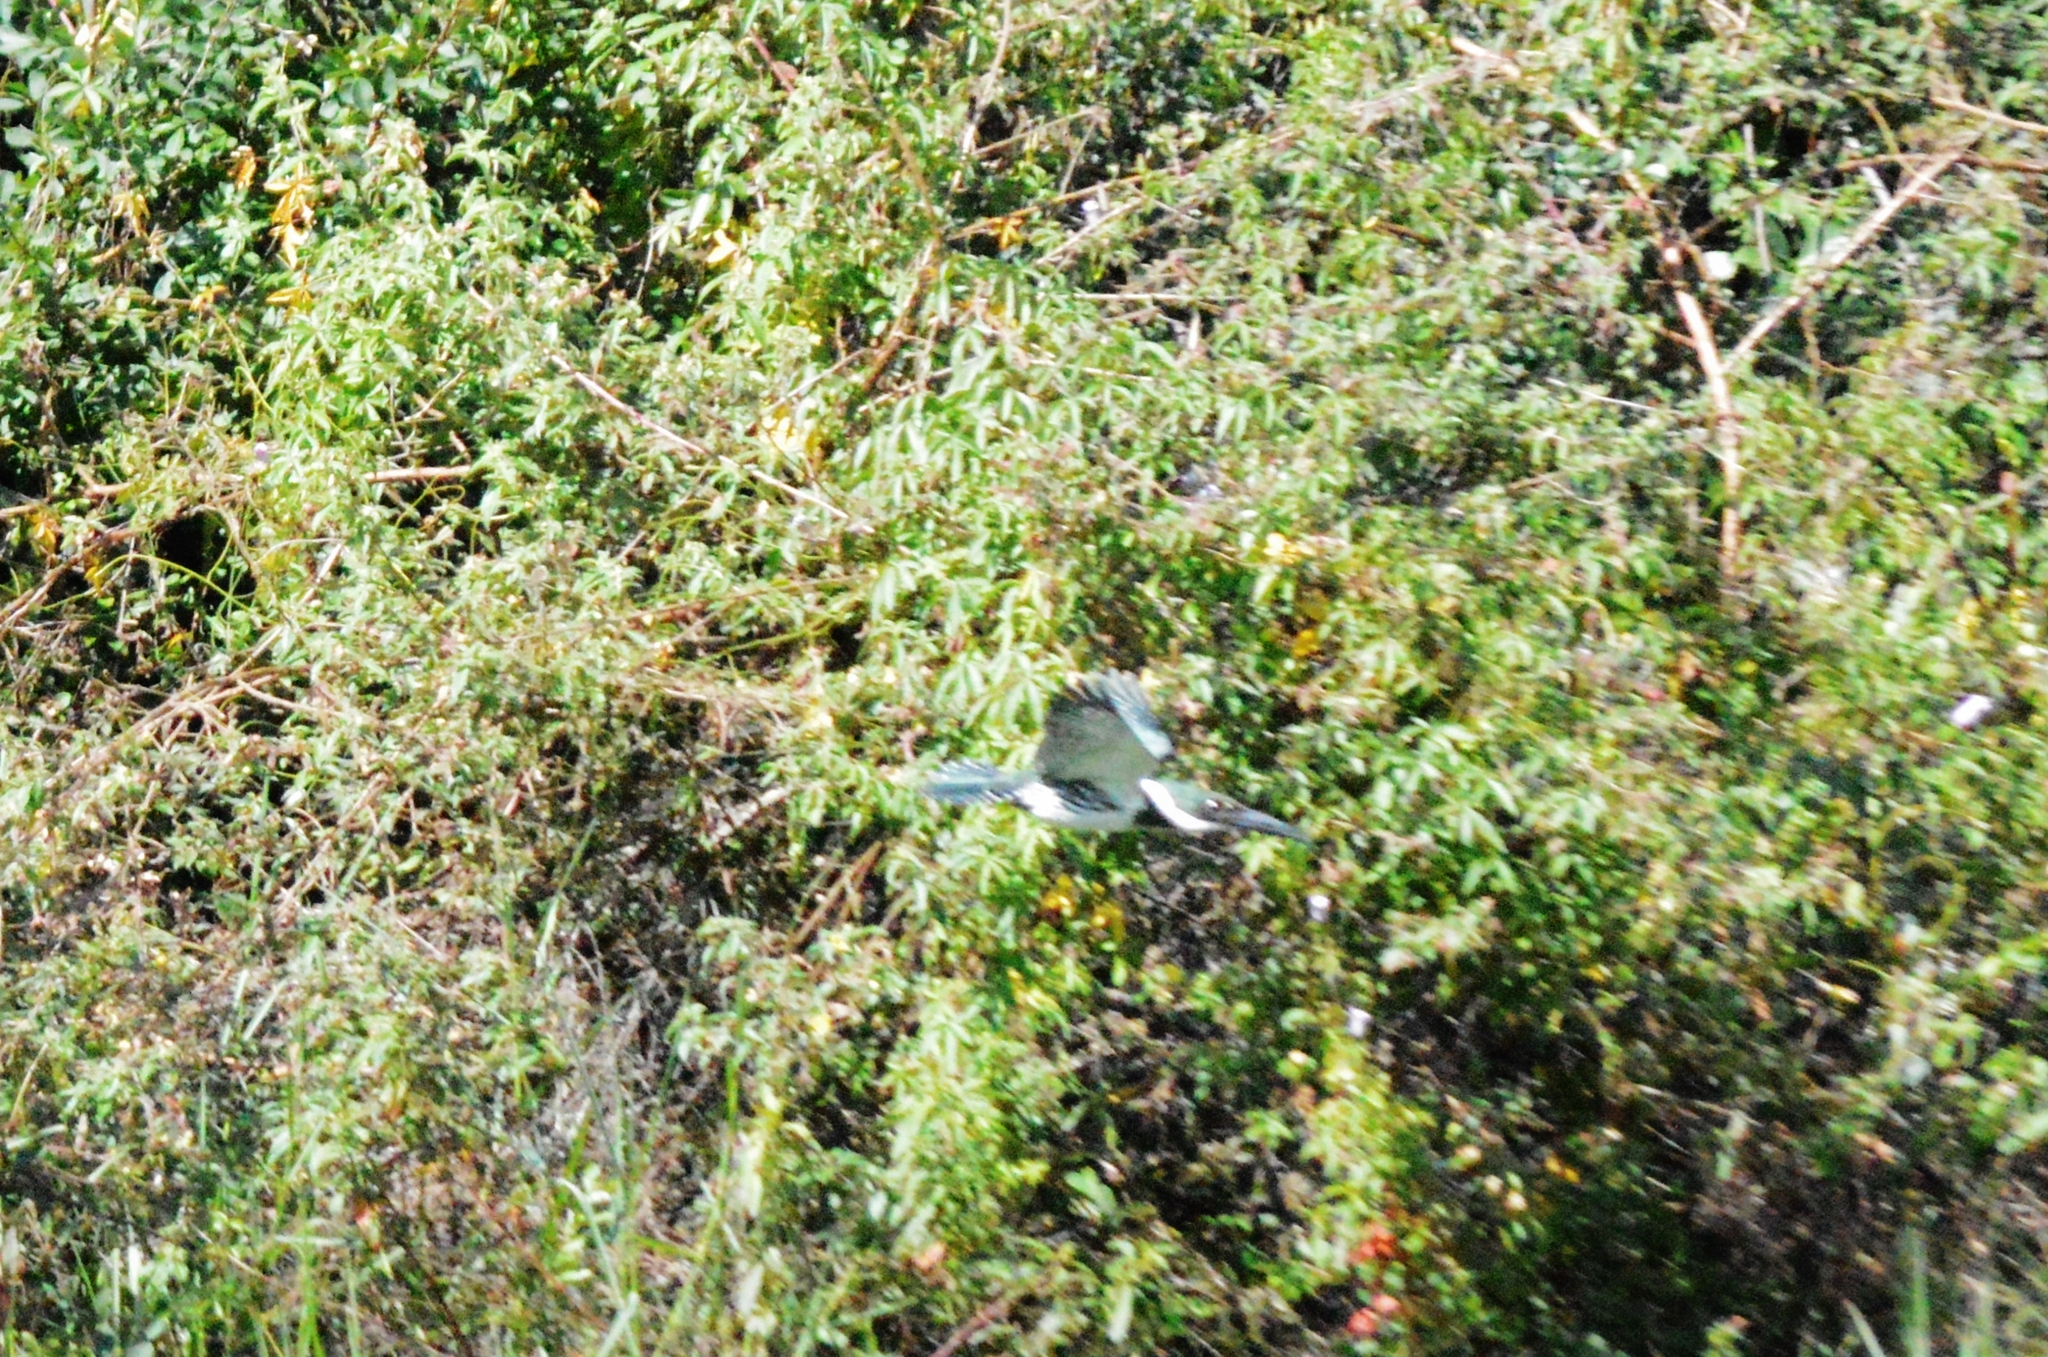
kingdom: Animalia
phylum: Chordata
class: Aves
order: Coraciiformes
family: Alcedinidae
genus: Chloroceryle
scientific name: Chloroceryle amazona
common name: Amazon kingfisher
